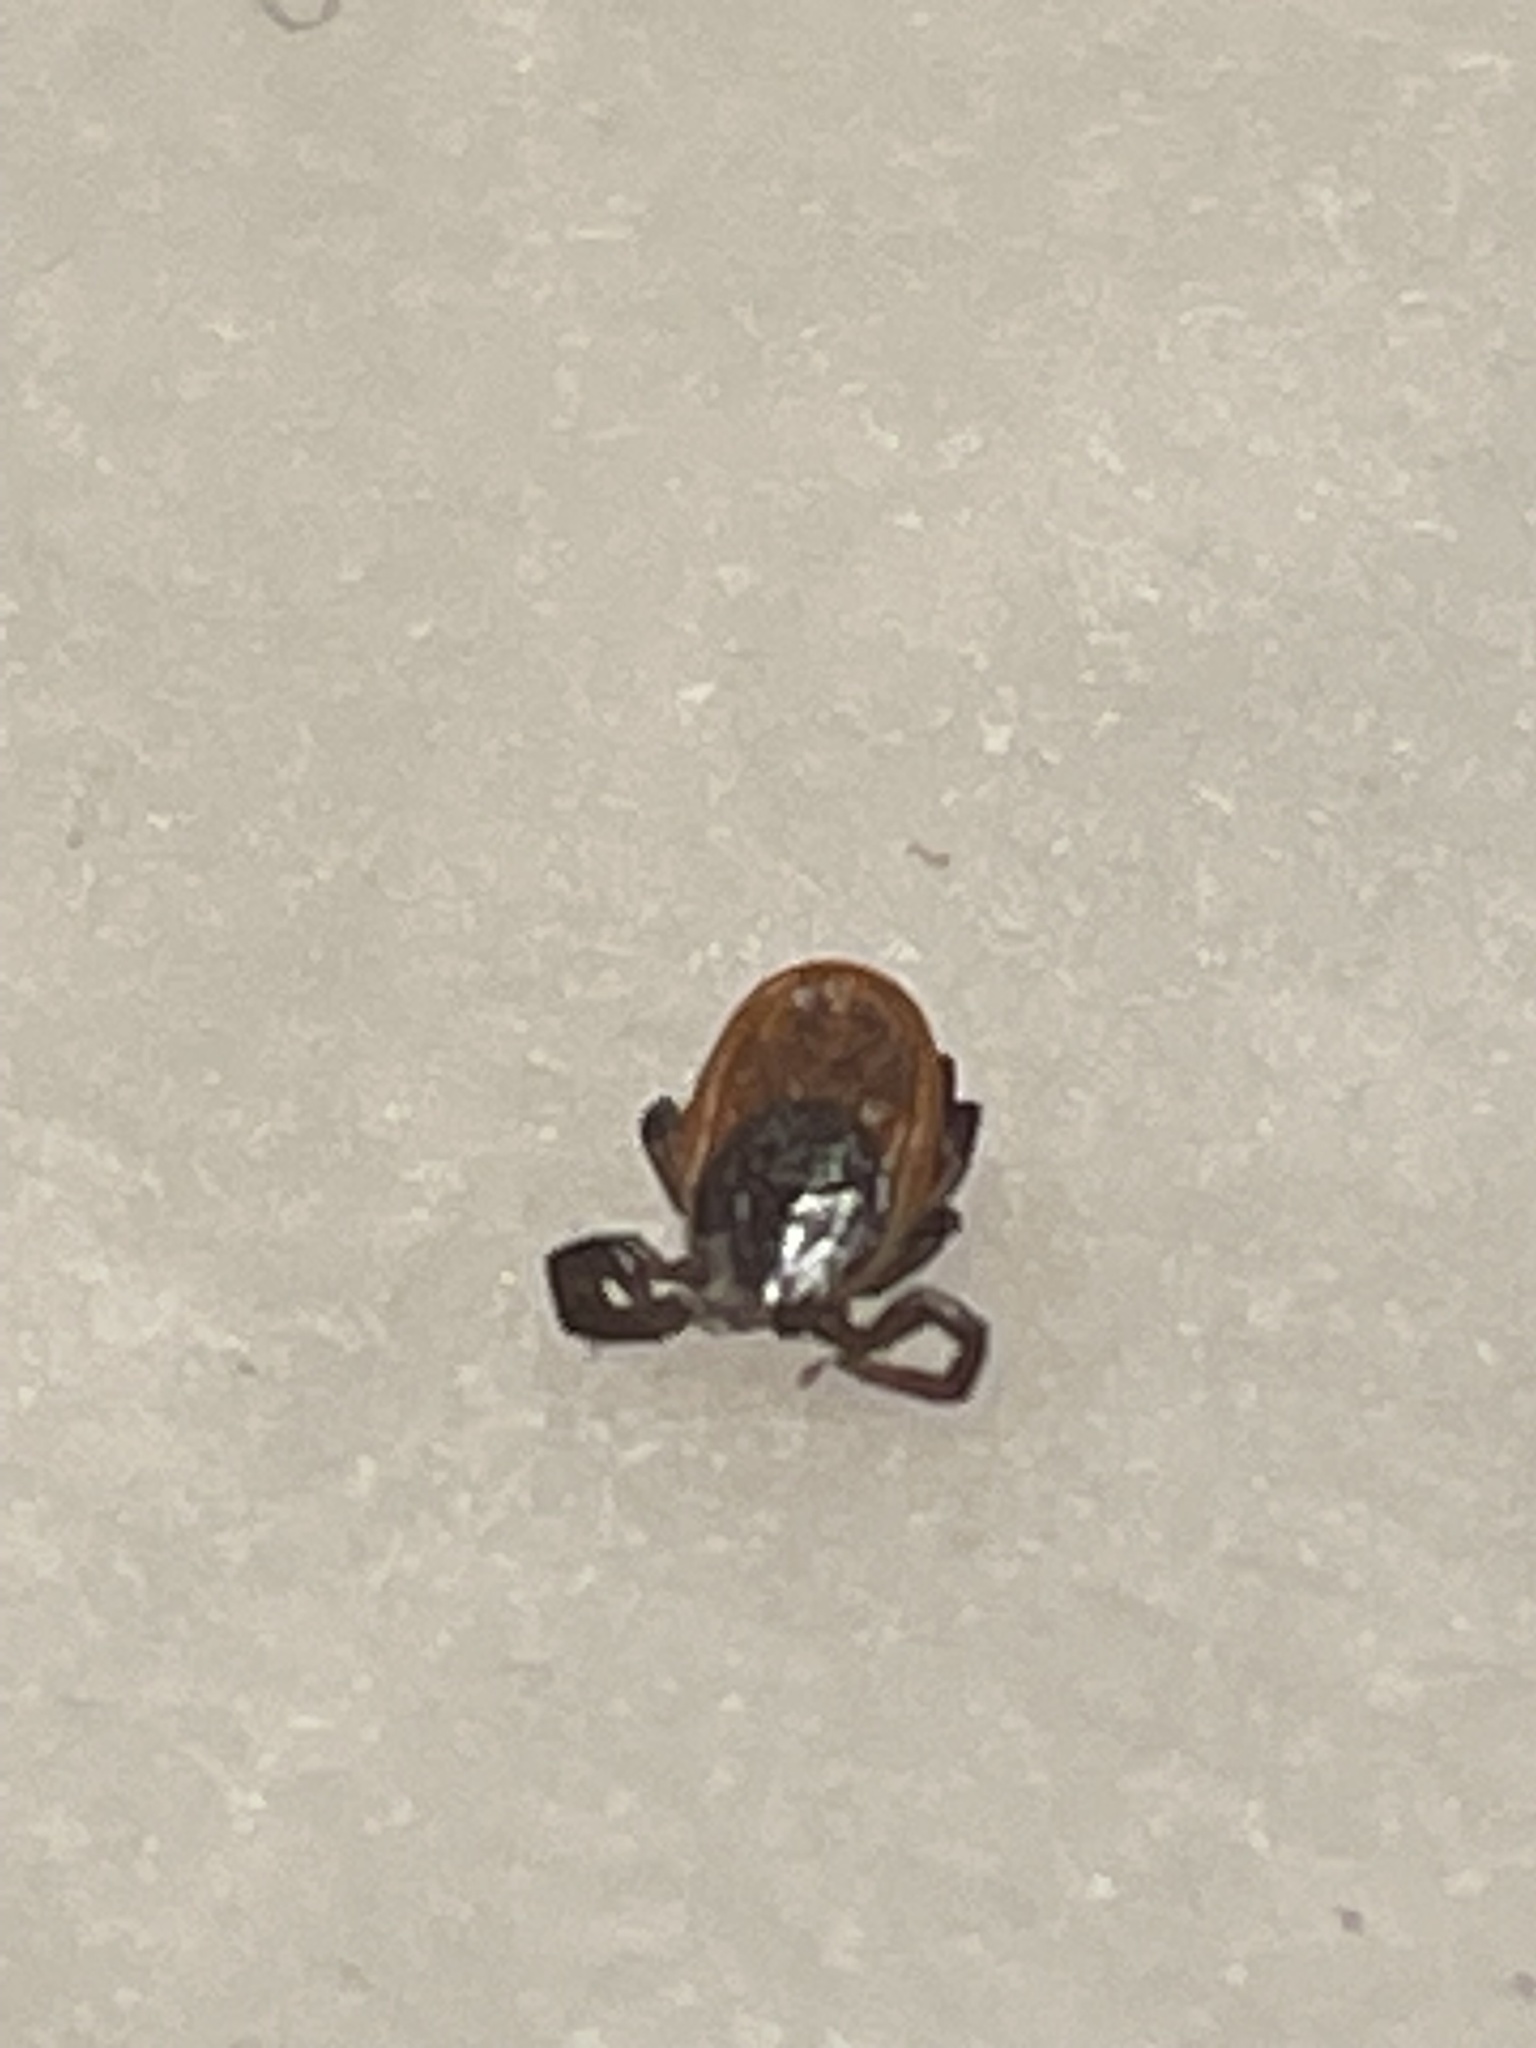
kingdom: Animalia
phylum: Arthropoda
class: Arachnida
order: Ixodida
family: Ixodidae
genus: Ixodes
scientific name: Ixodes scapularis
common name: Black legged tick
